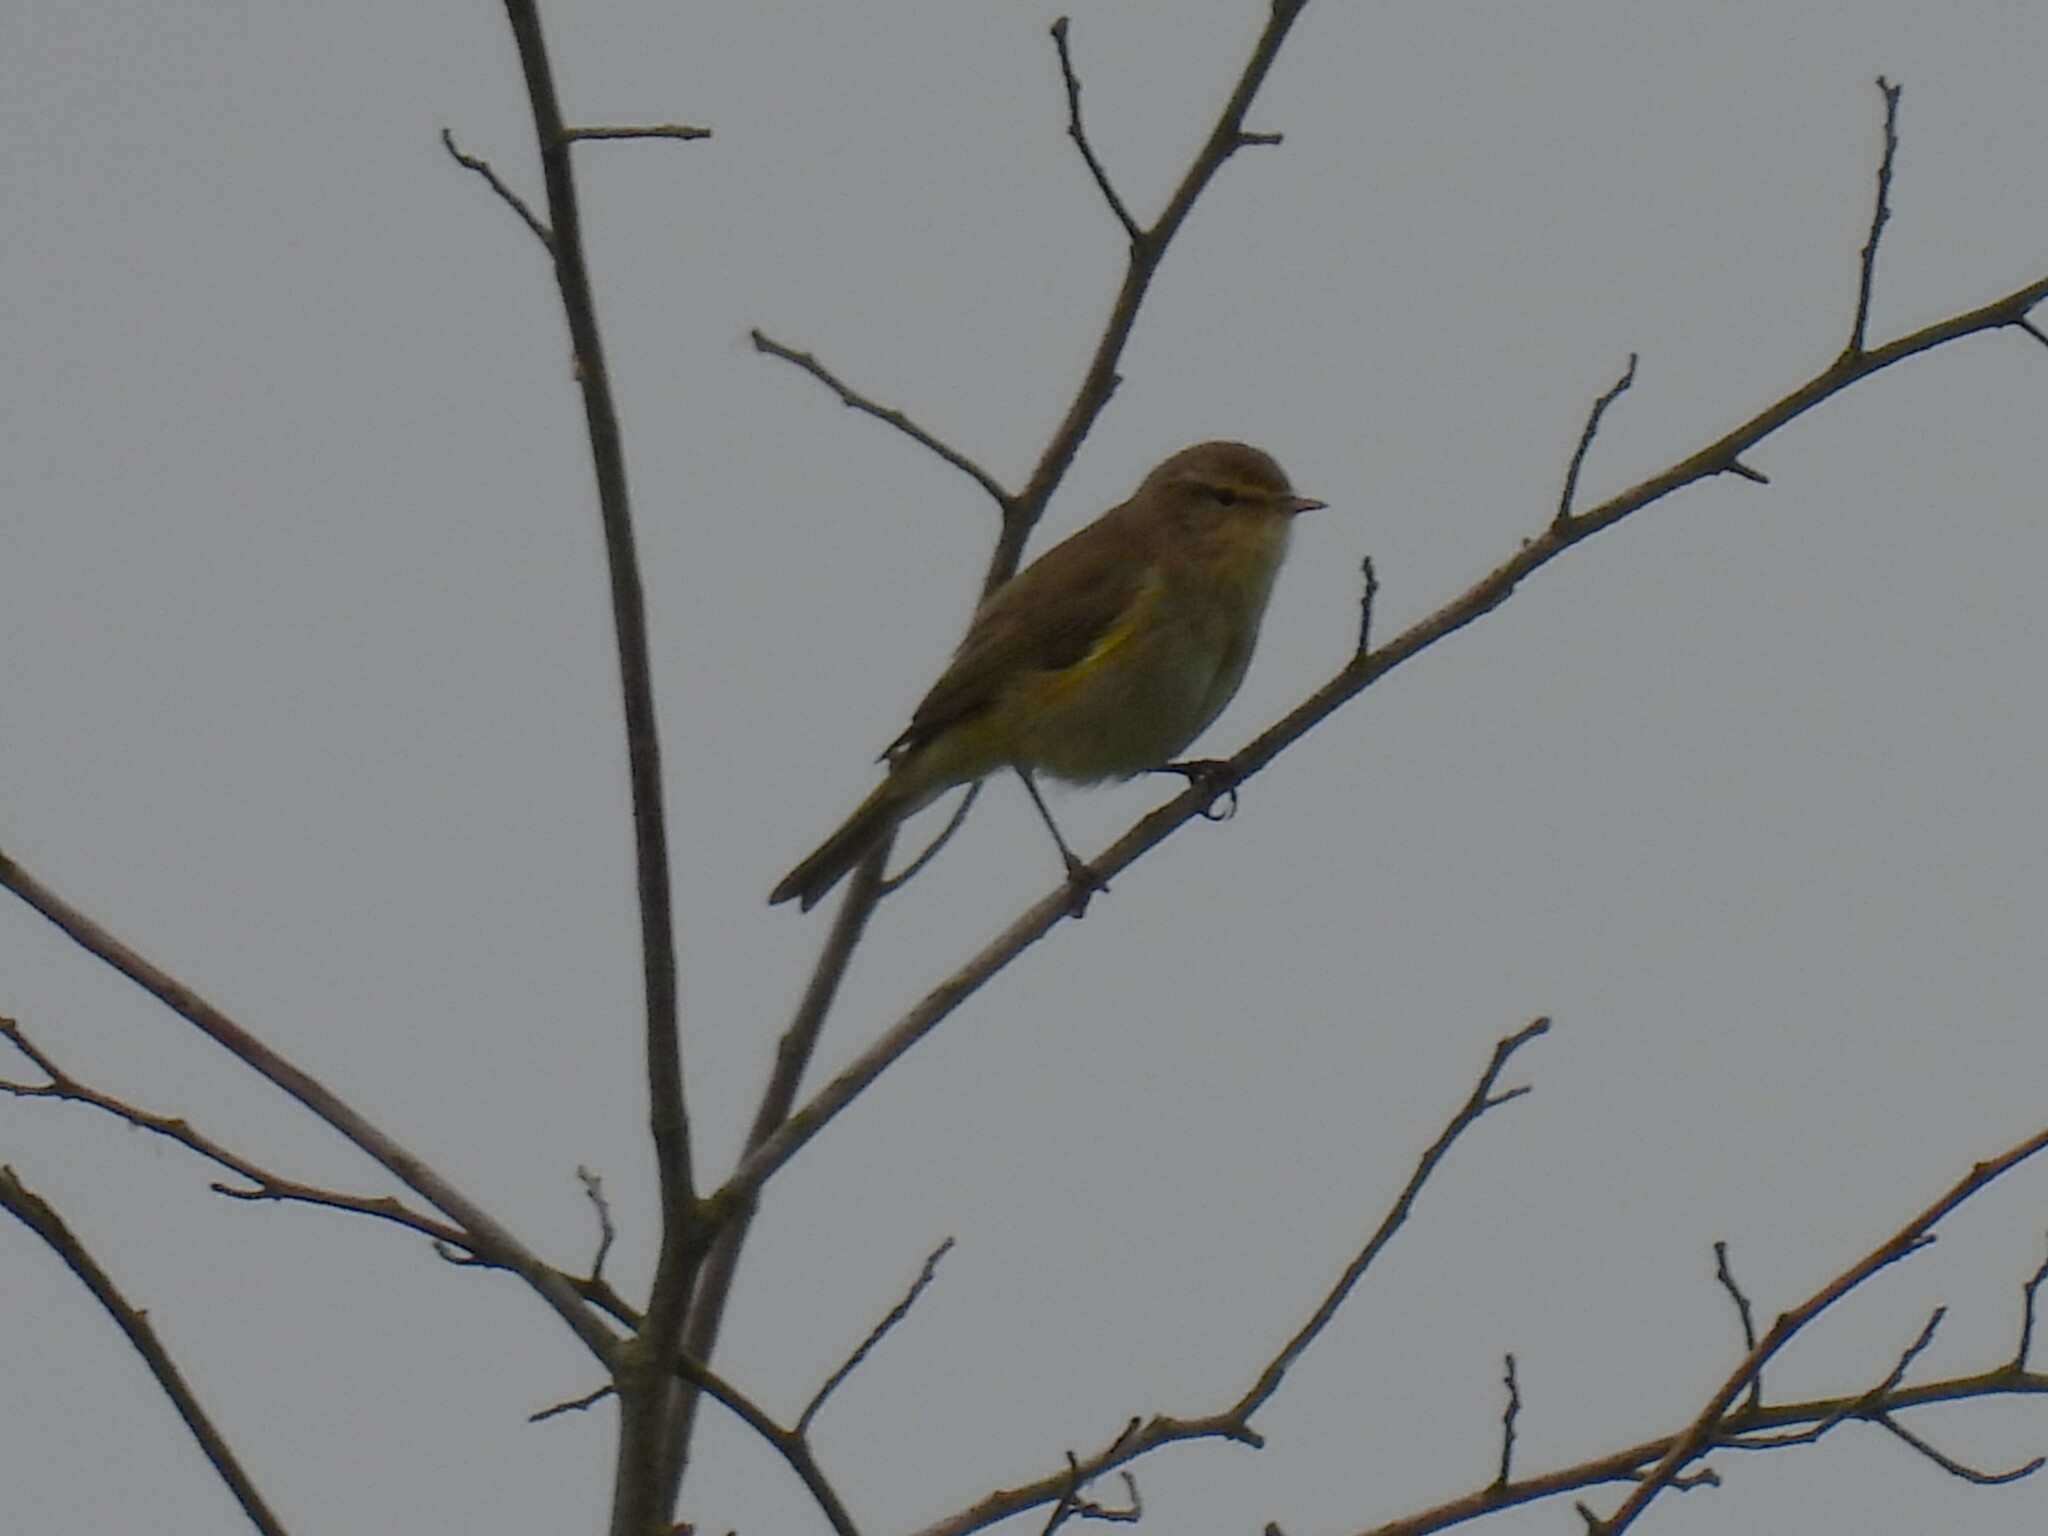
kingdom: Animalia
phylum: Chordata
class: Aves
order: Passeriformes
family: Phylloscopidae
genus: Phylloscopus
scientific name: Phylloscopus collybita
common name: Common chiffchaff
